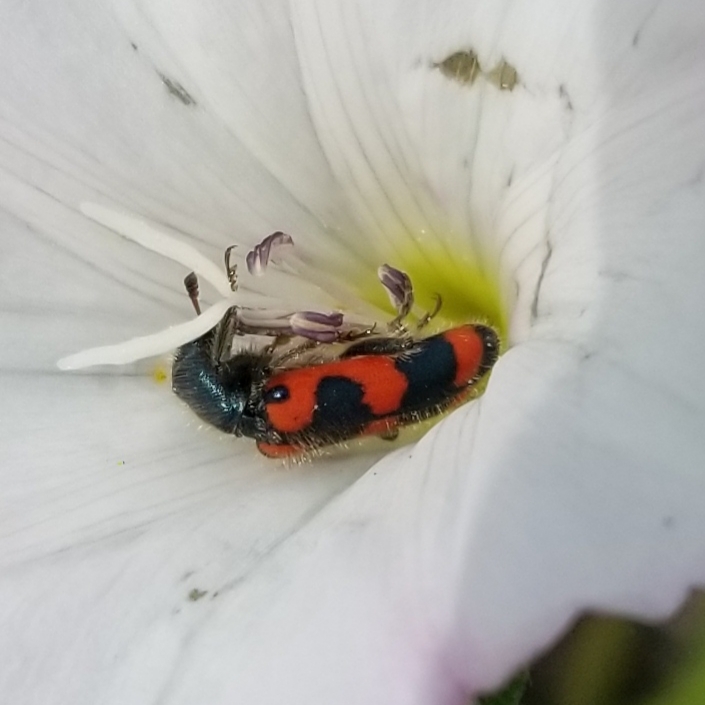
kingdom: Animalia
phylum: Arthropoda
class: Insecta
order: Coleoptera
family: Cleridae
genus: Trichodes
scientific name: Trichodes nutalli
